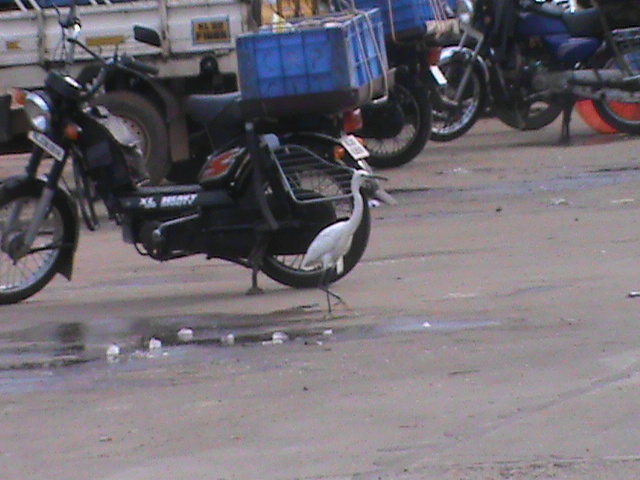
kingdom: Animalia
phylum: Chordata
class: Aves
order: Pelecaniformes
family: Ardeidae
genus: Egretta
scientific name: Egretta garzetta
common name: Little egret
